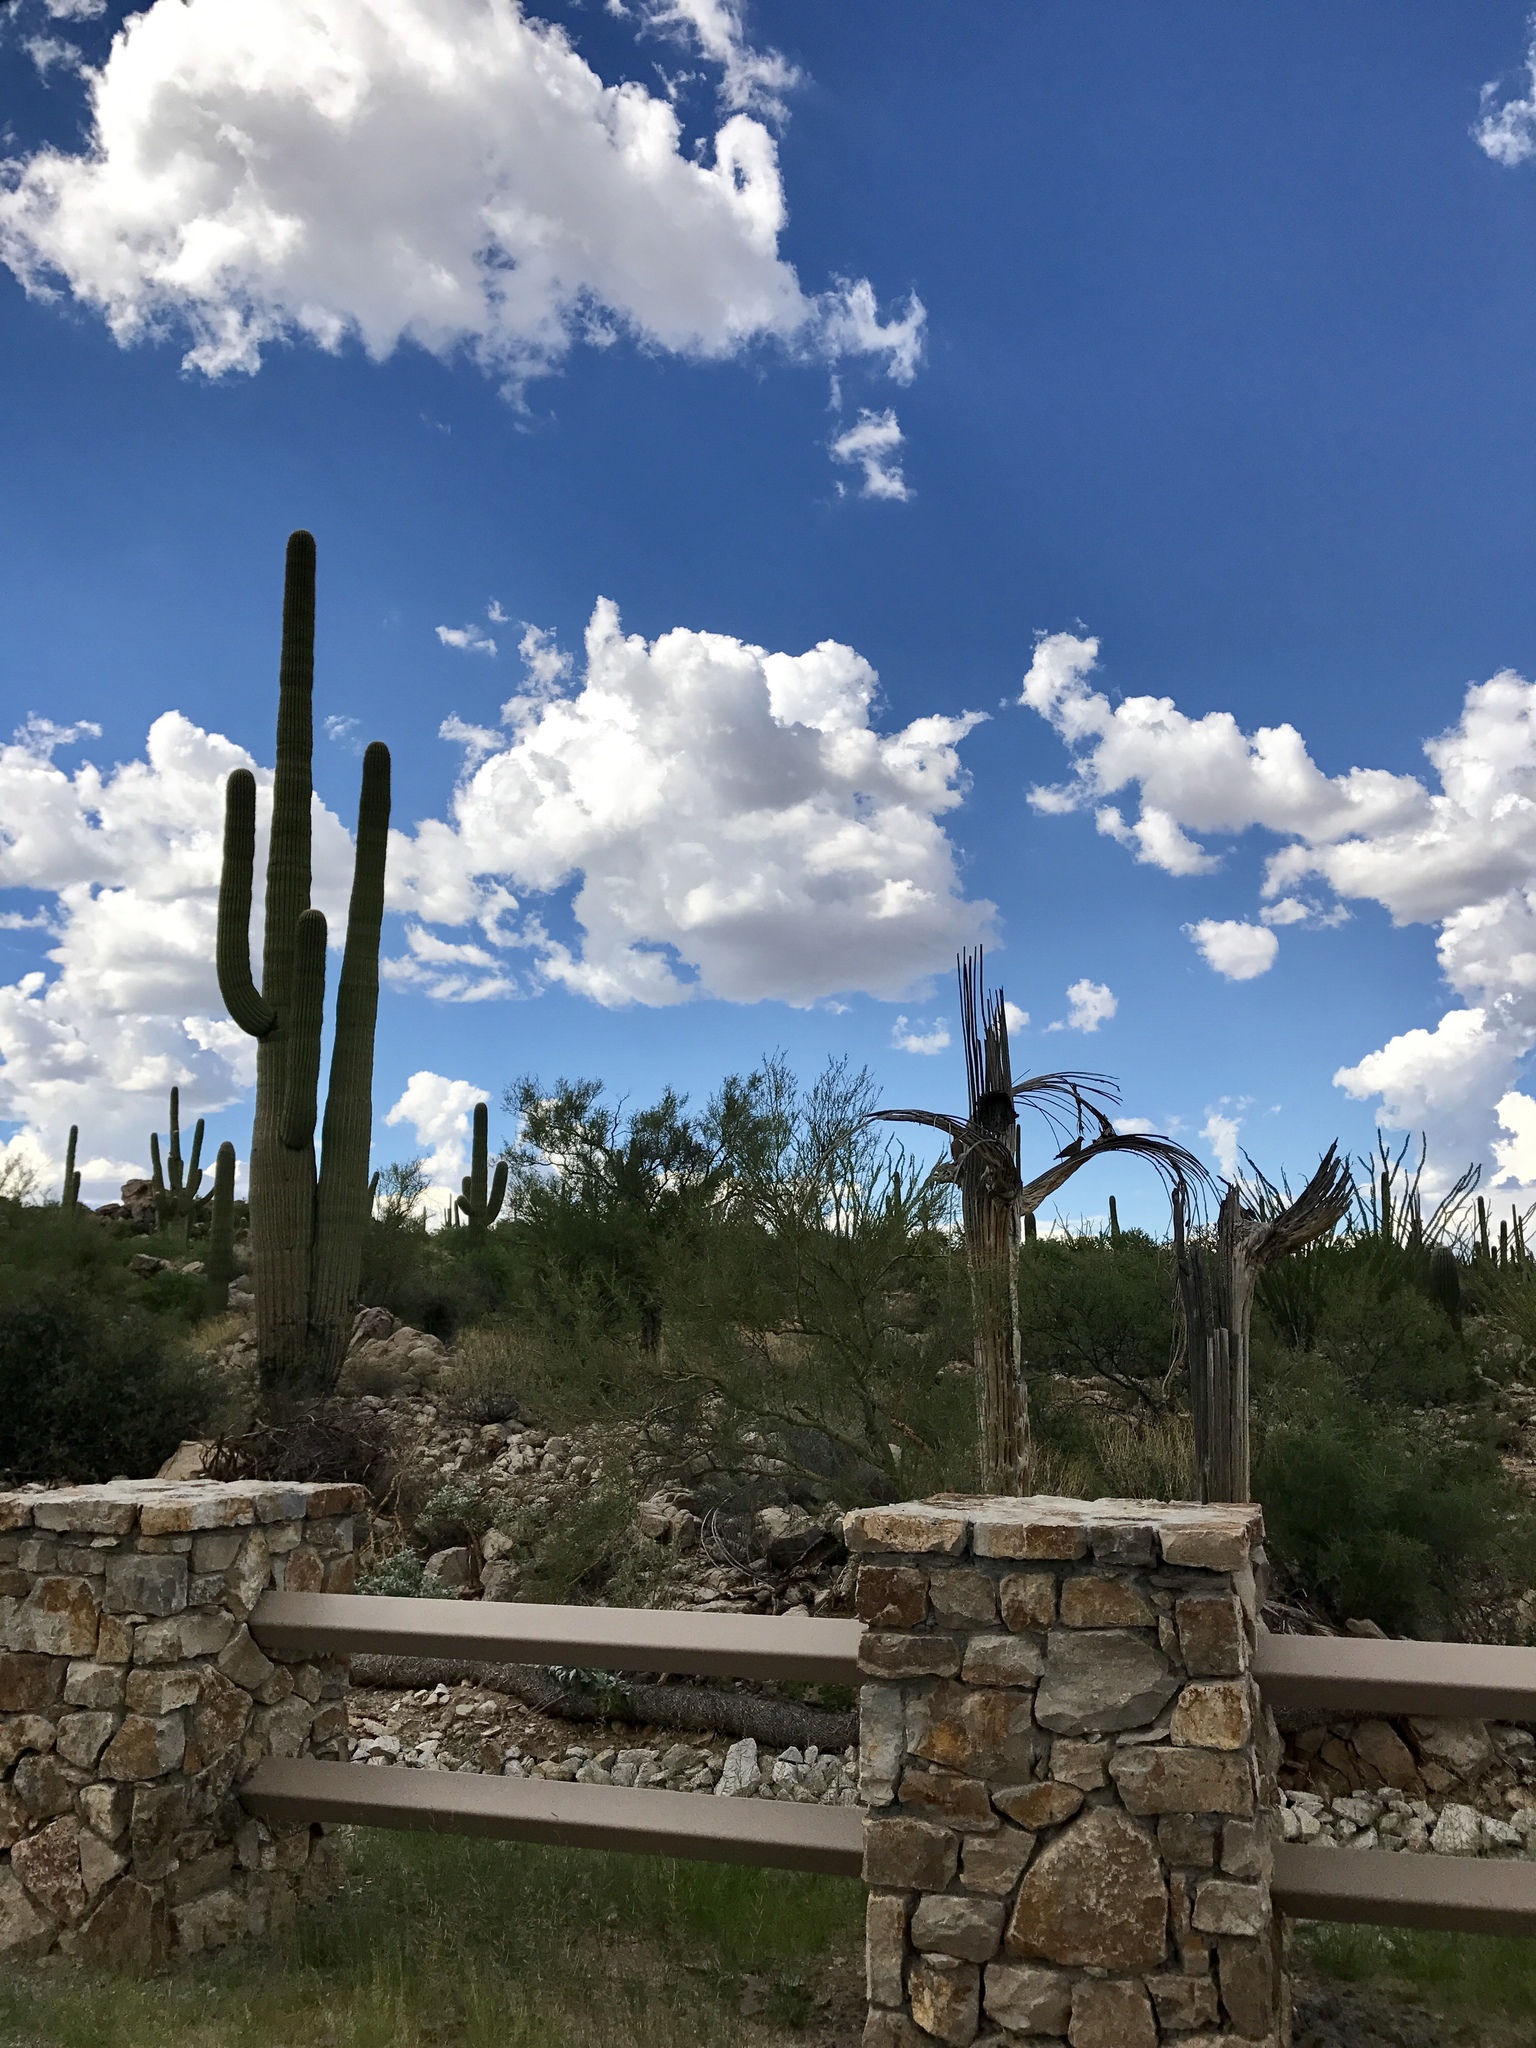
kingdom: Plantae
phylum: Tracheophyta
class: Magnoliopsida
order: Caryophyllales
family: Cactaceae
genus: Carnegiea
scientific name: Carnegiea gigantea
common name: Saguaro
